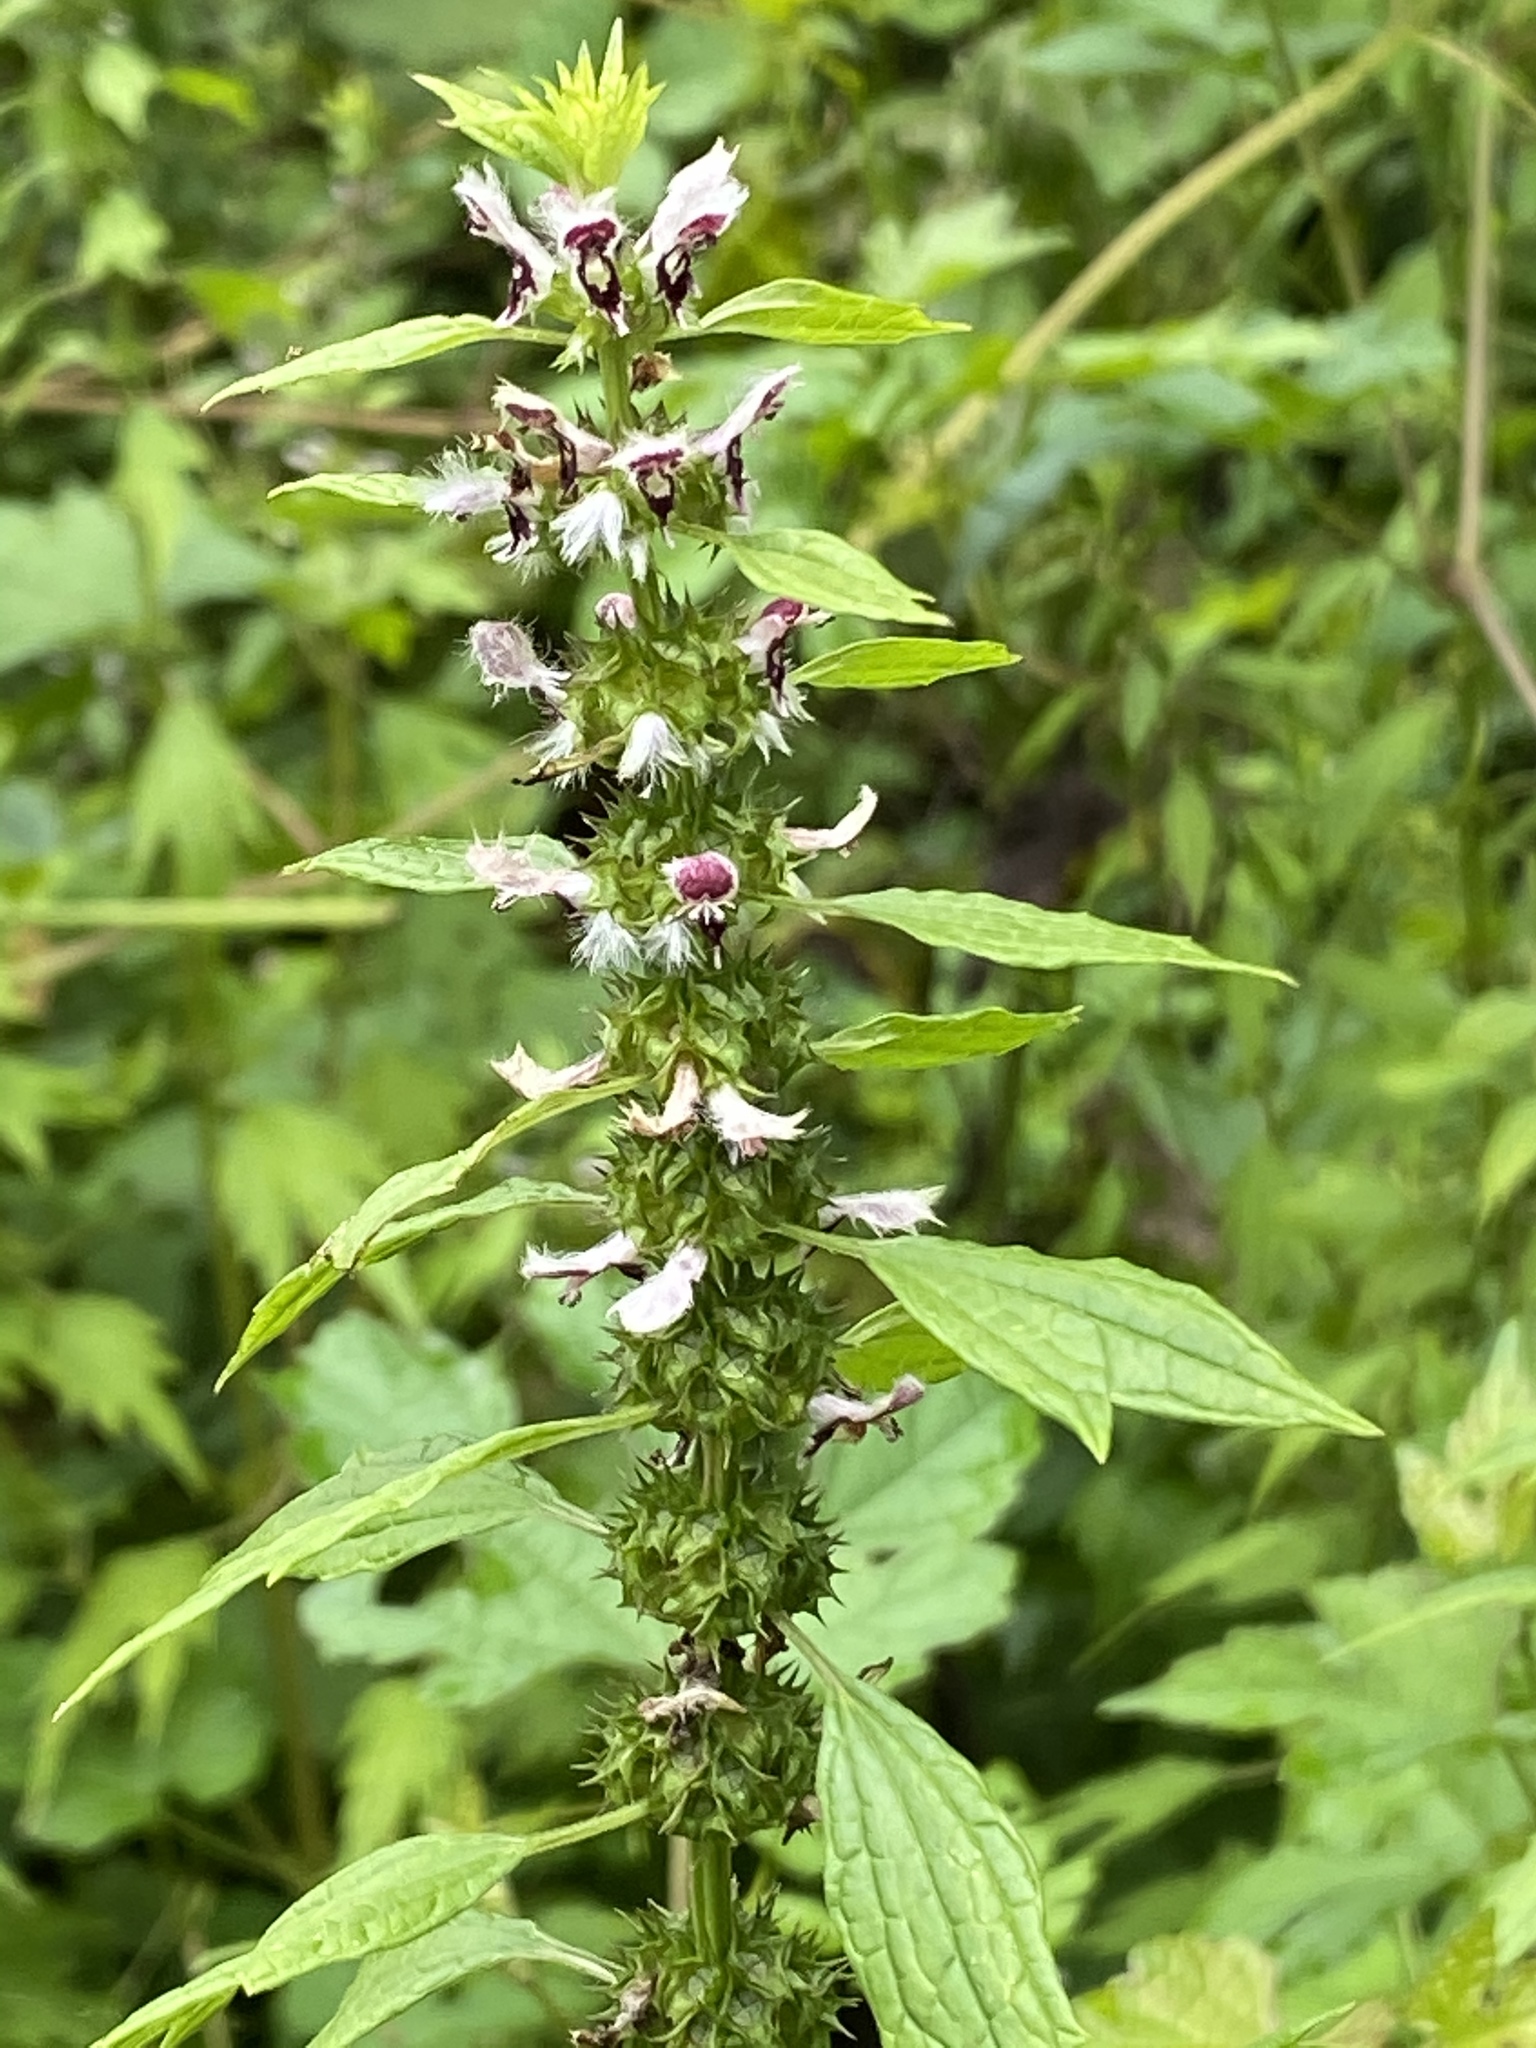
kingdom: Plantae
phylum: Tracheophyta
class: Magnoliopsida
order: Lamiales
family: Lamiaceae
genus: Leonurus
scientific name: Leonurus cardiaca
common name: Motherwort
